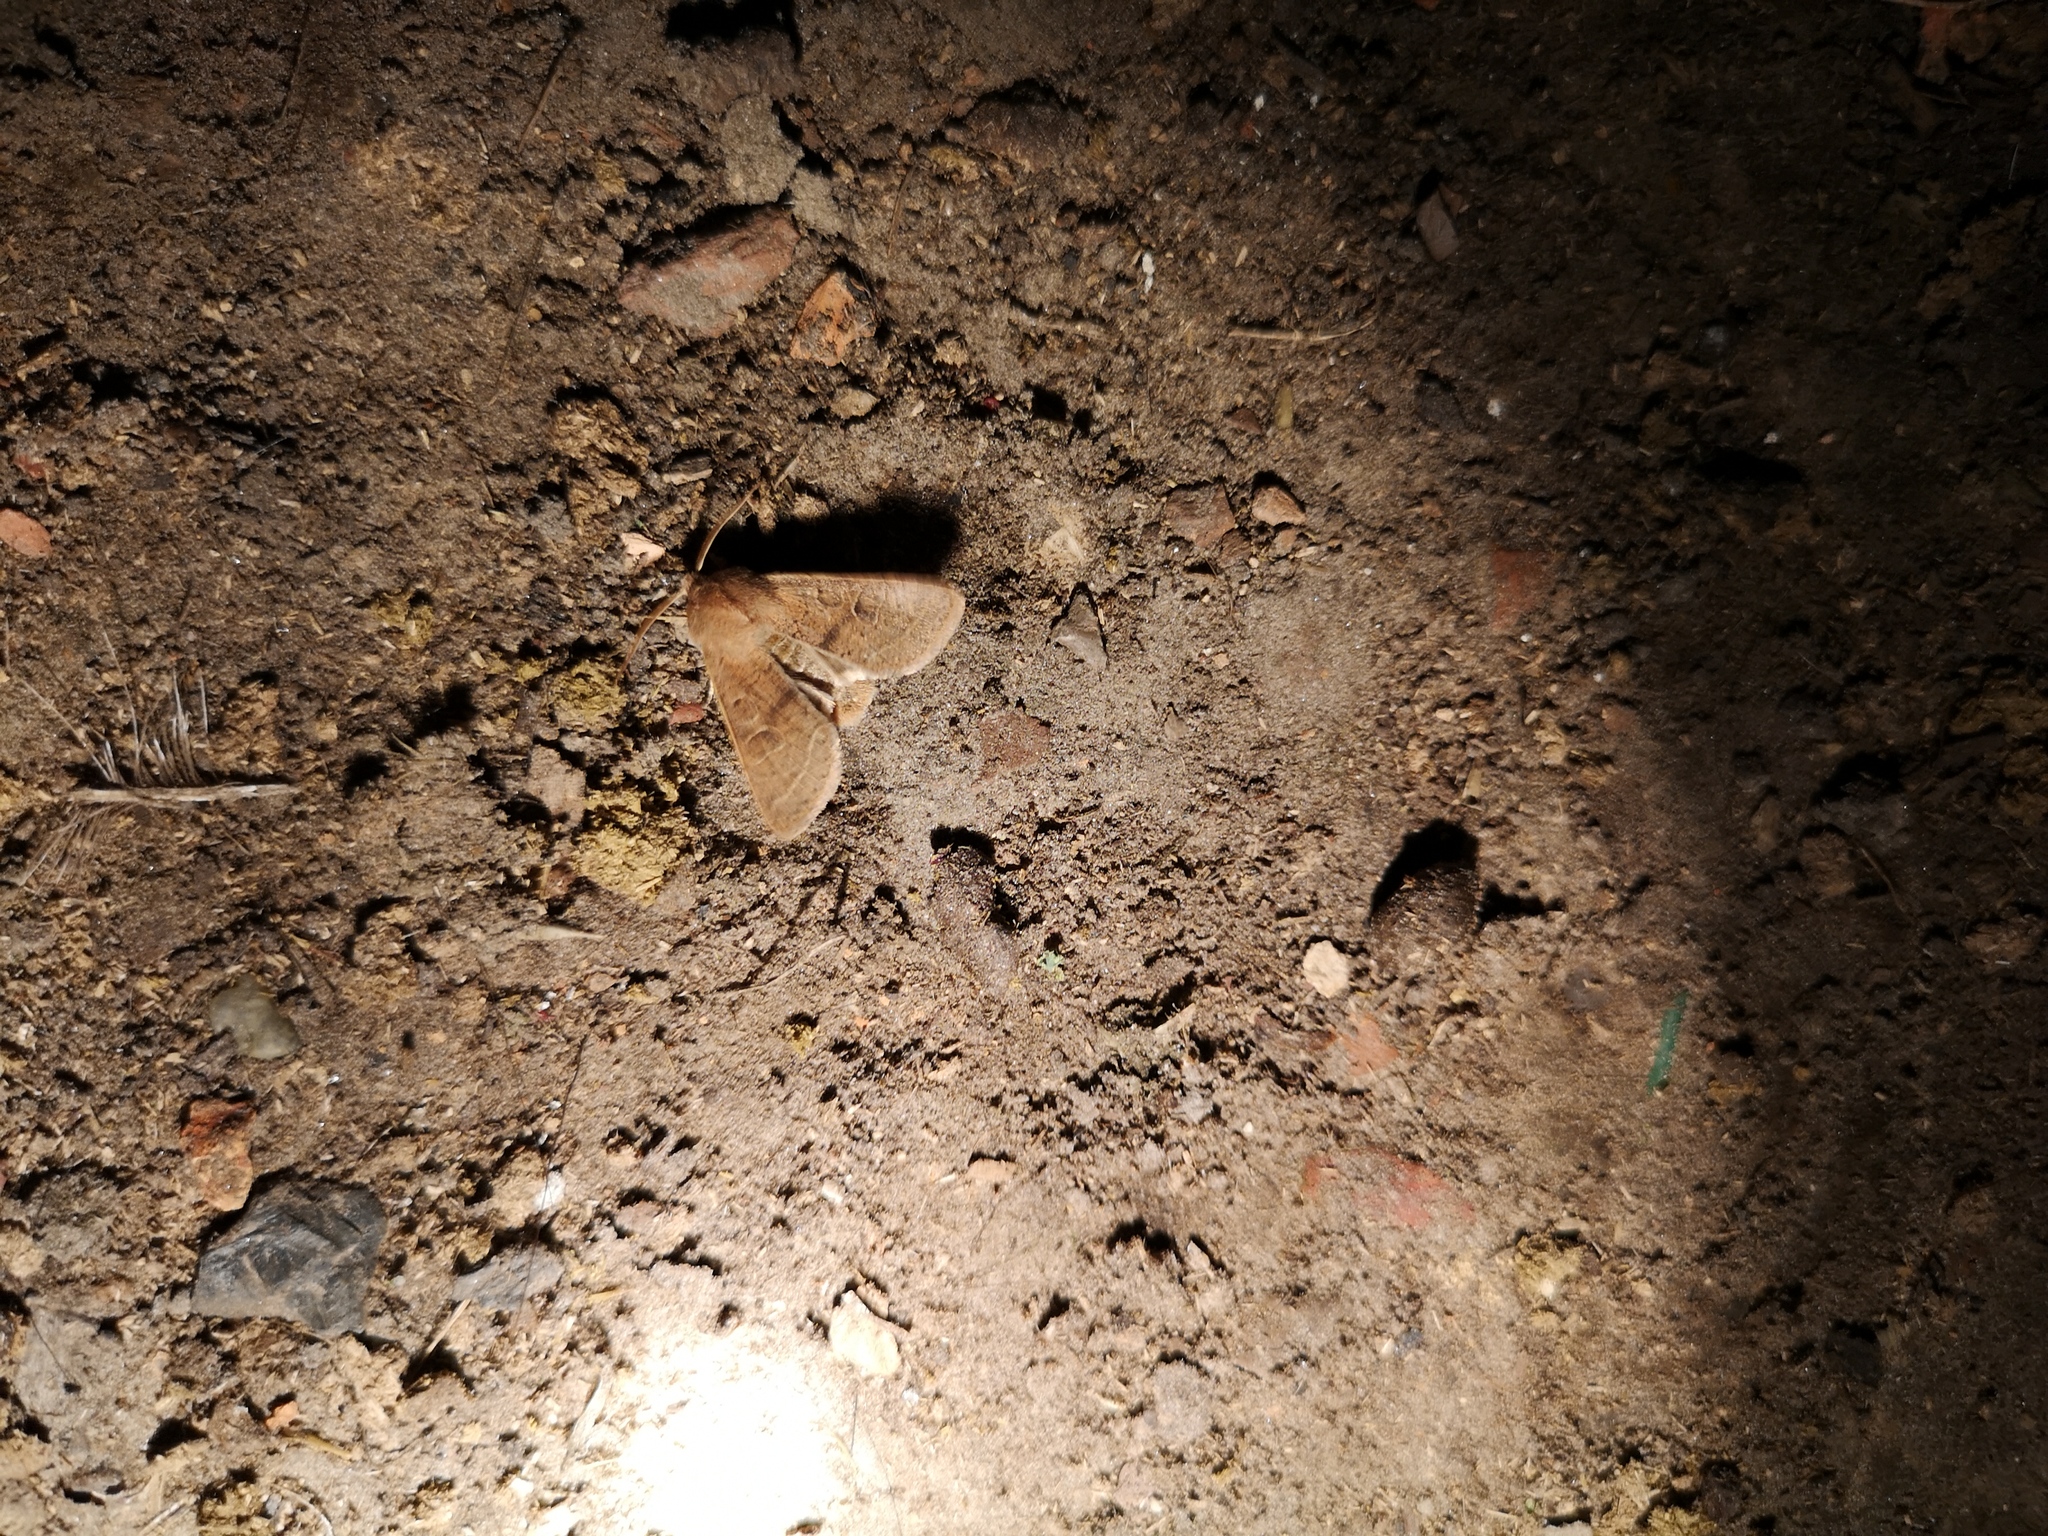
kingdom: Animalia
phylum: Arthropoda
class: Insecta
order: Lepidoptera
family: Noctuidae
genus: Orthosia
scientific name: Orthosia cerasi
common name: Common quaker
